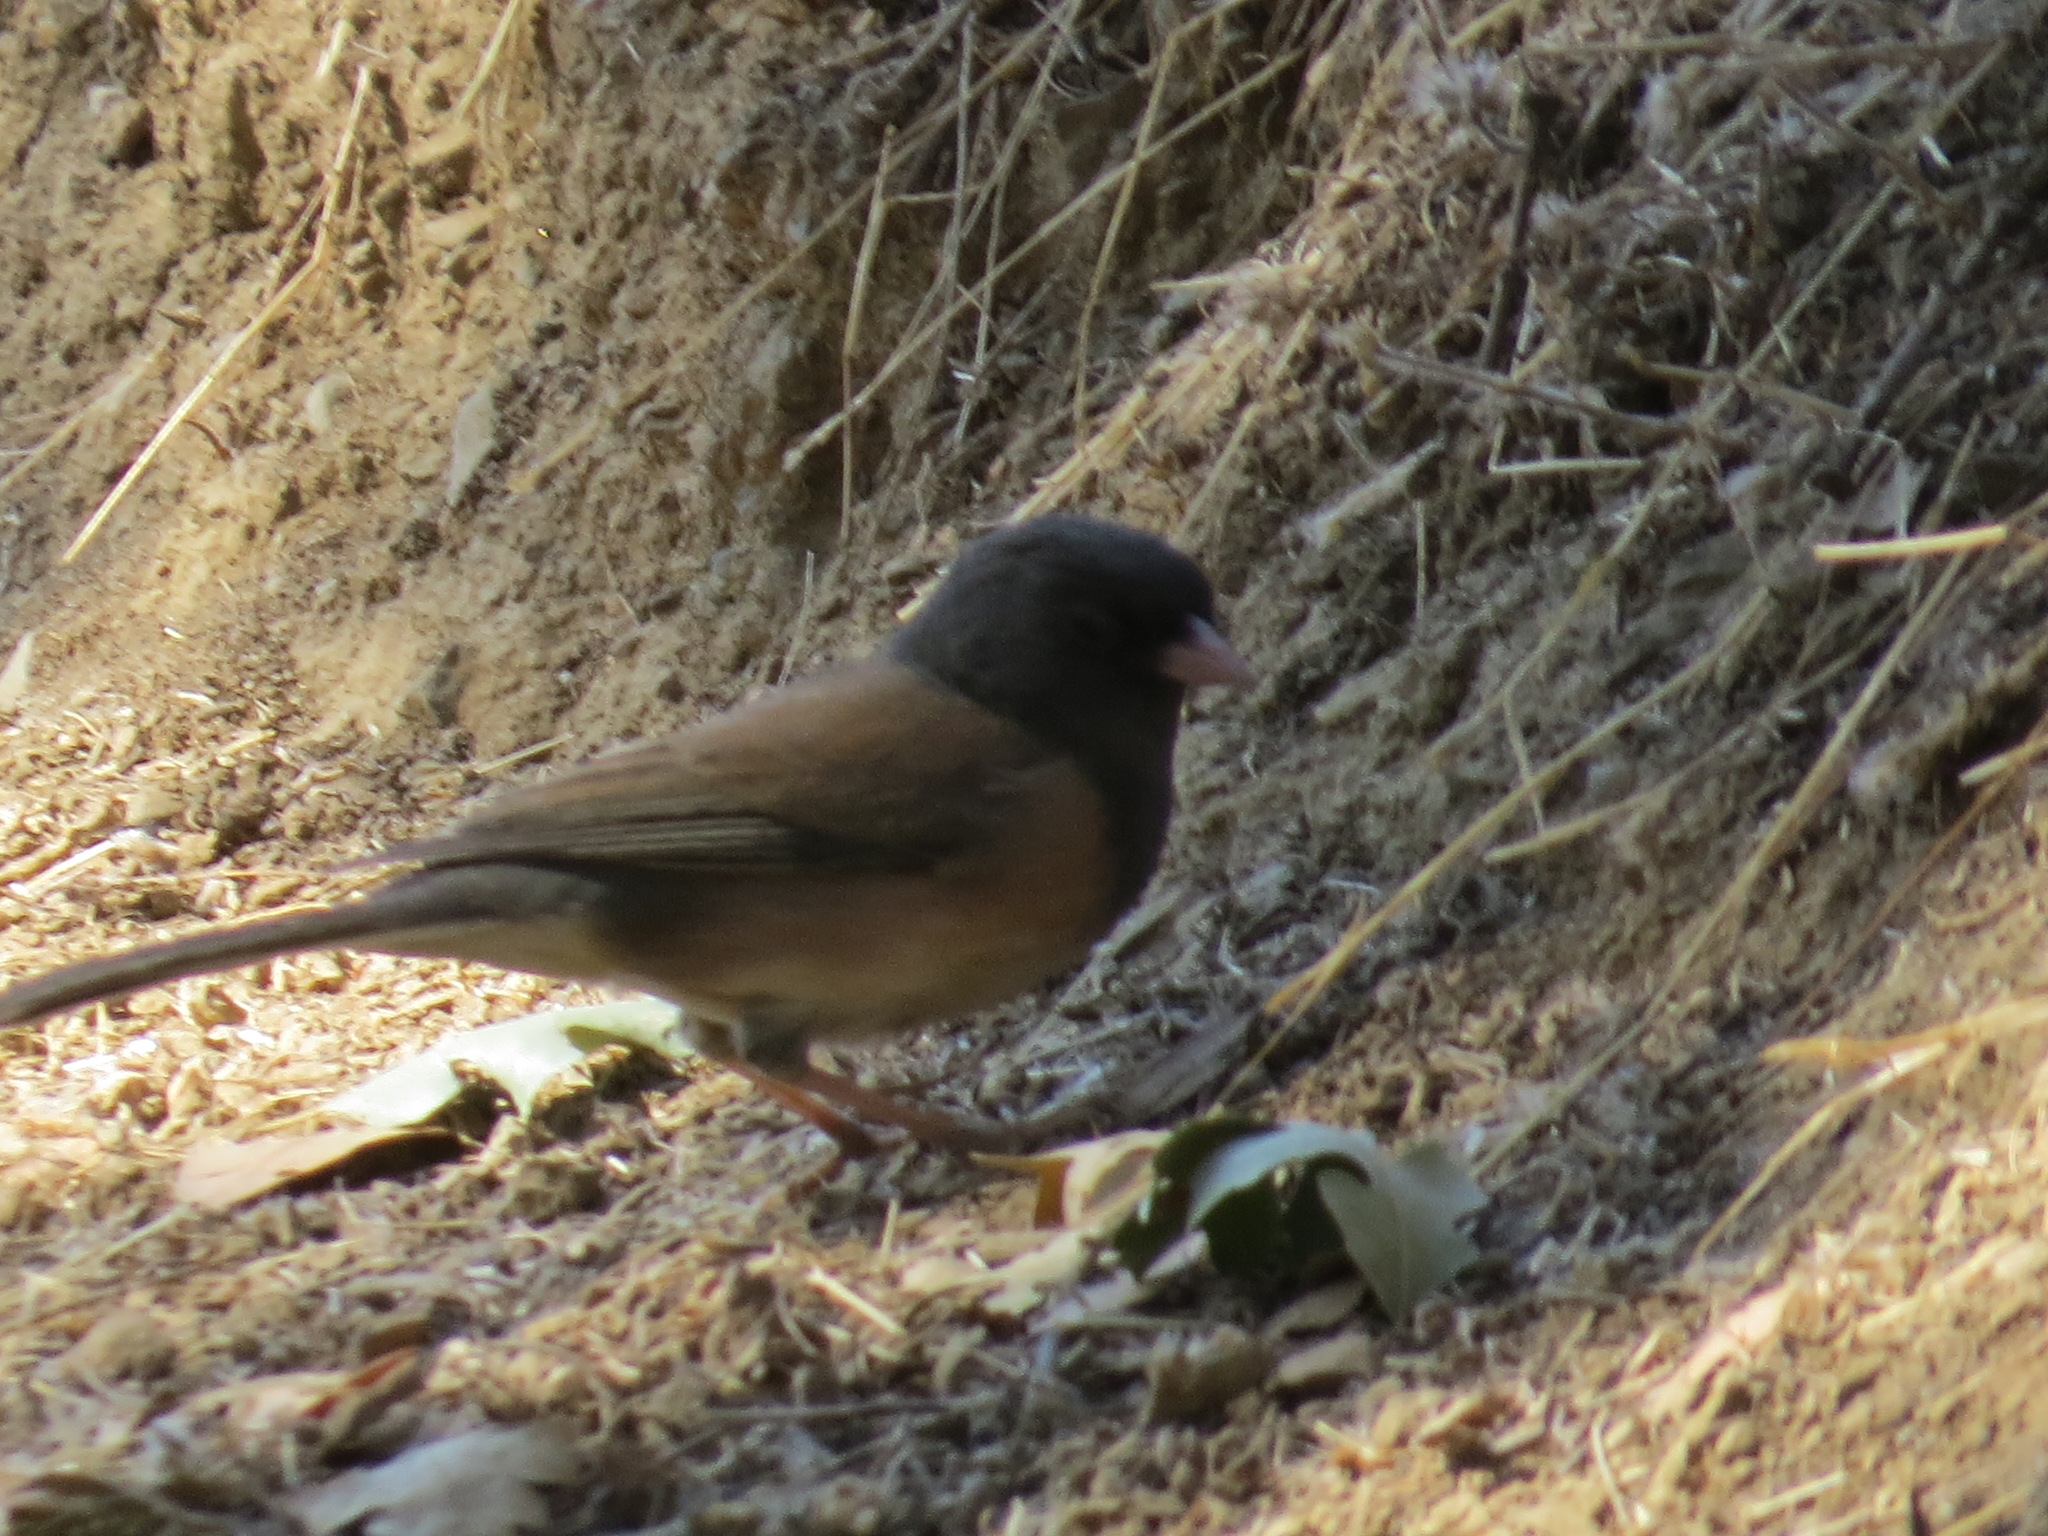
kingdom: Animalia
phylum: Chordata
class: Aves
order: Passeriformes
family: Passerellidae
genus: Junco
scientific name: Junco hyemalis
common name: Dark-eyed junco
